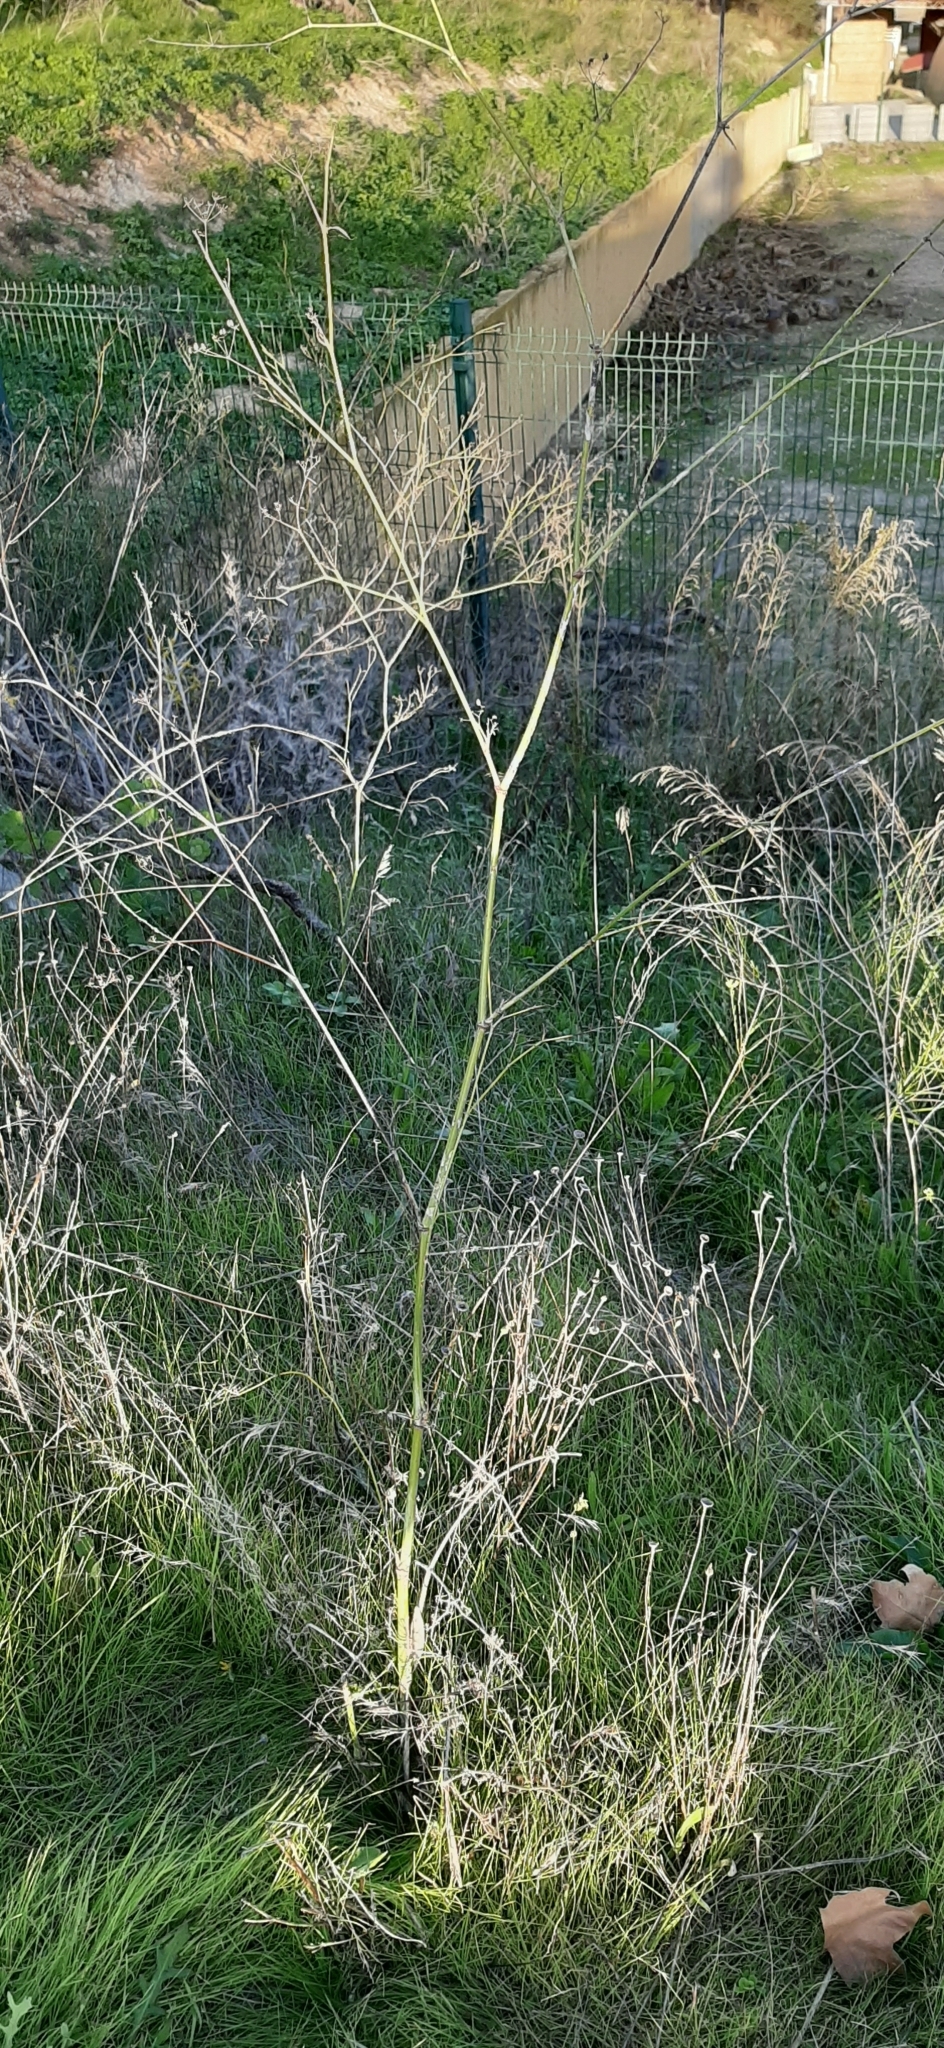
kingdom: Plantae
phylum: Tracheophyta
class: Magnoliopsida
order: Apiales
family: Apiaceae
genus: Foeniculum
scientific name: Foeniculum vulgare
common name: Fennel
